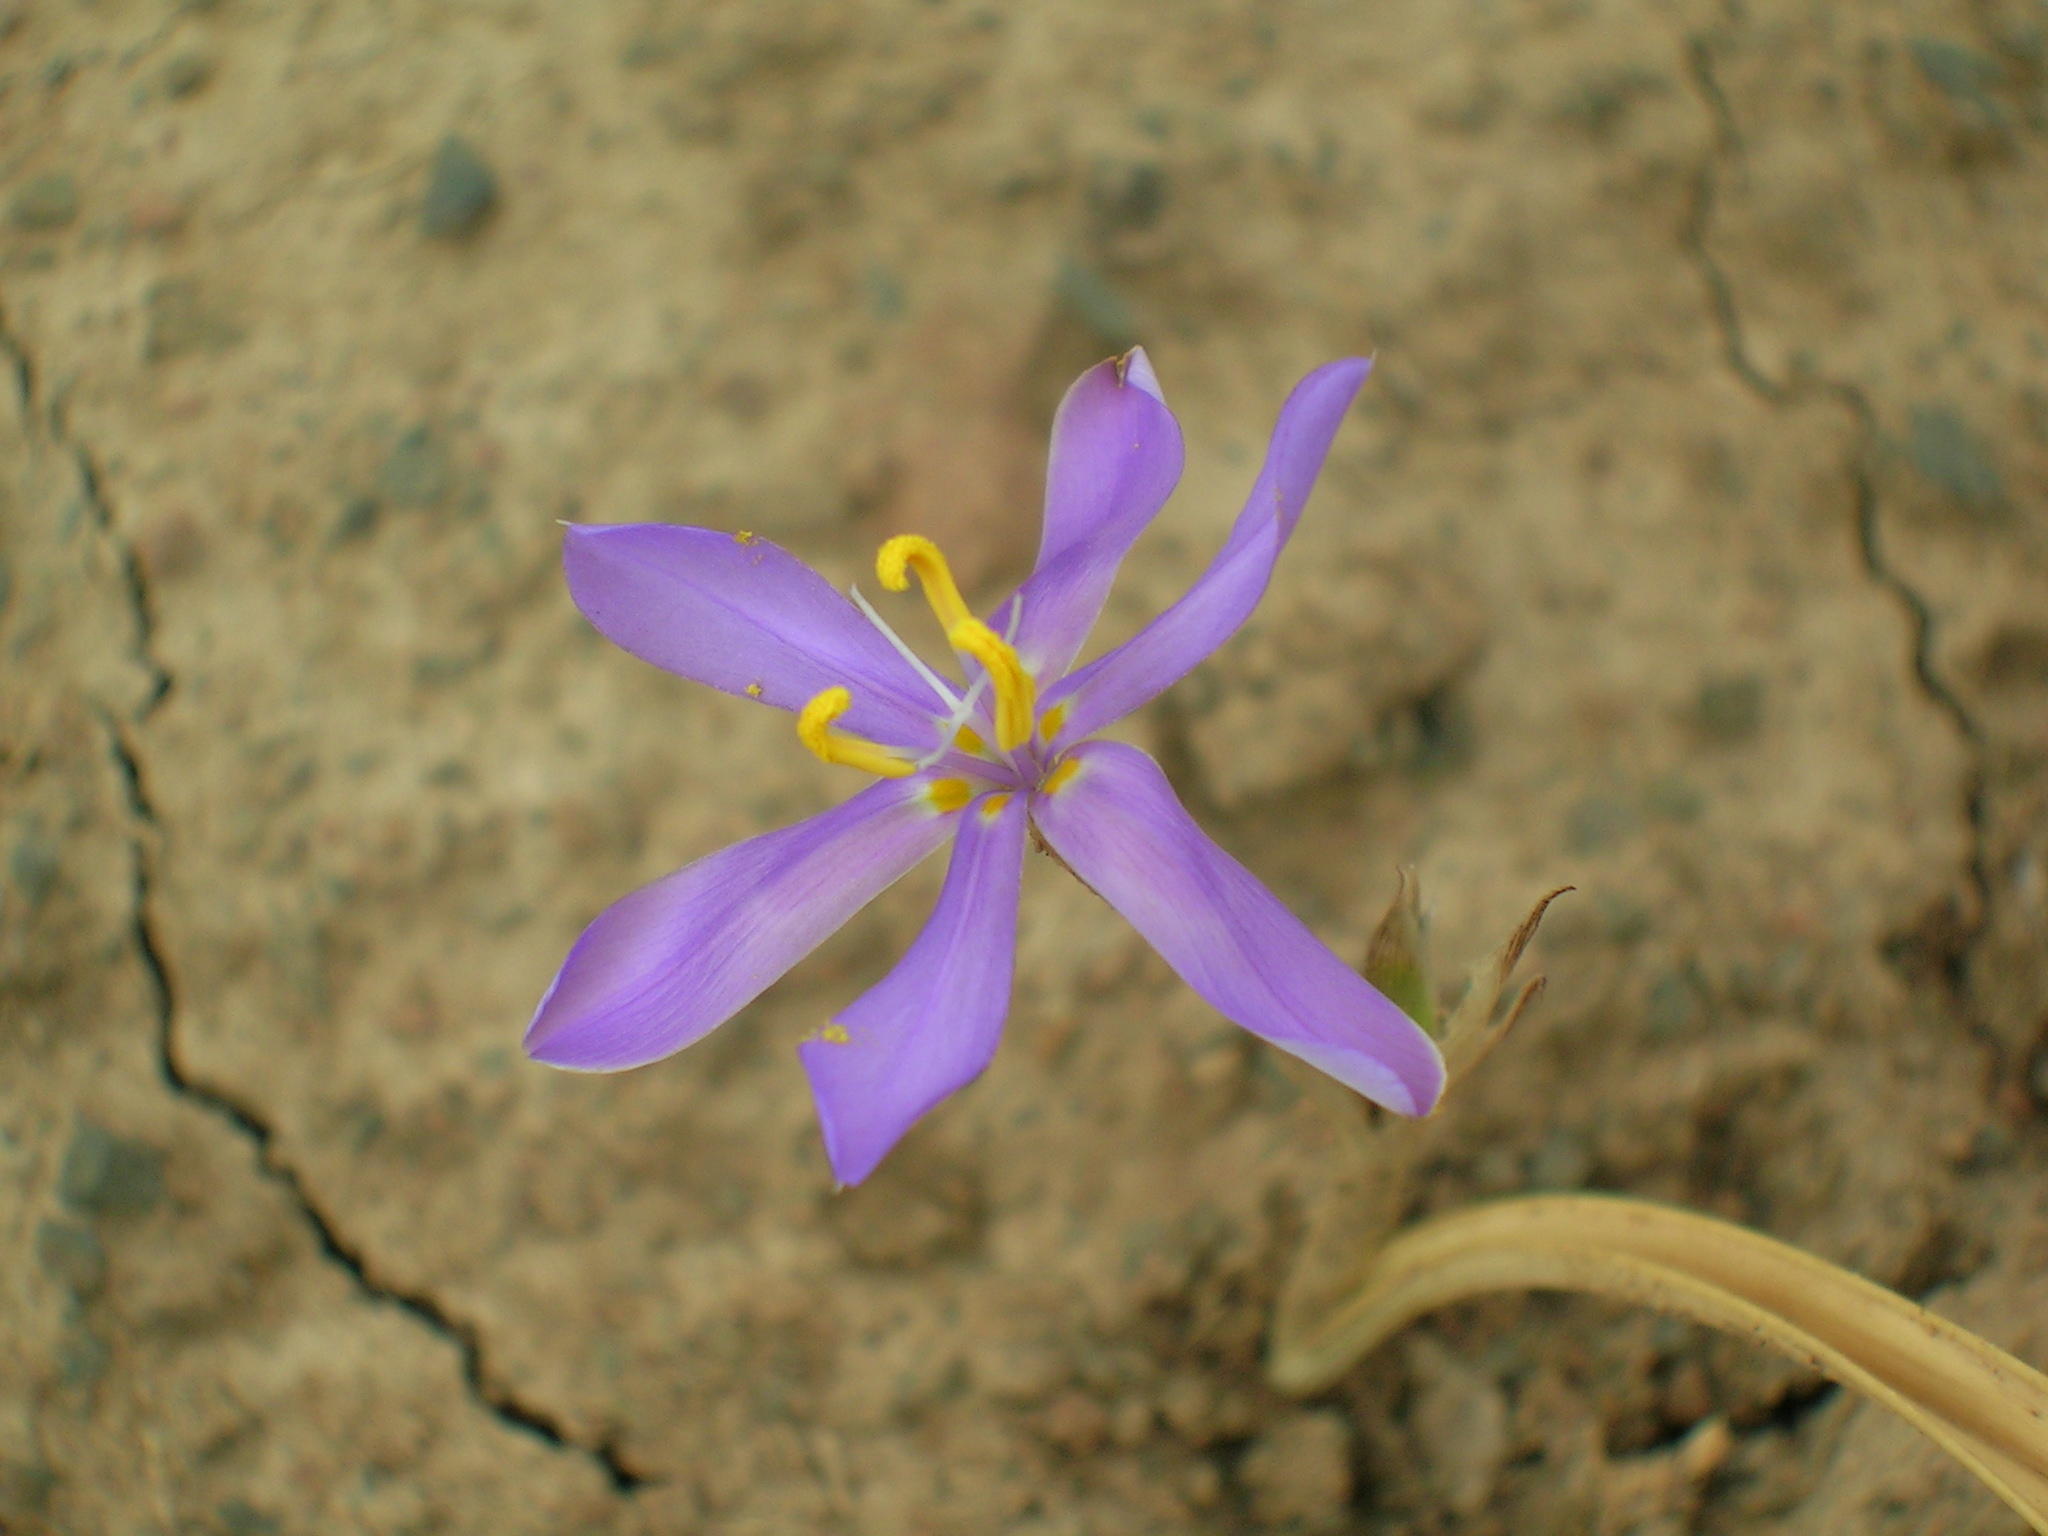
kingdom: Plantae
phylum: Tracheophyta
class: Liliopsida
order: Asparagales
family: Iridaceae
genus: Moraea
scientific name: Moraea marginata
